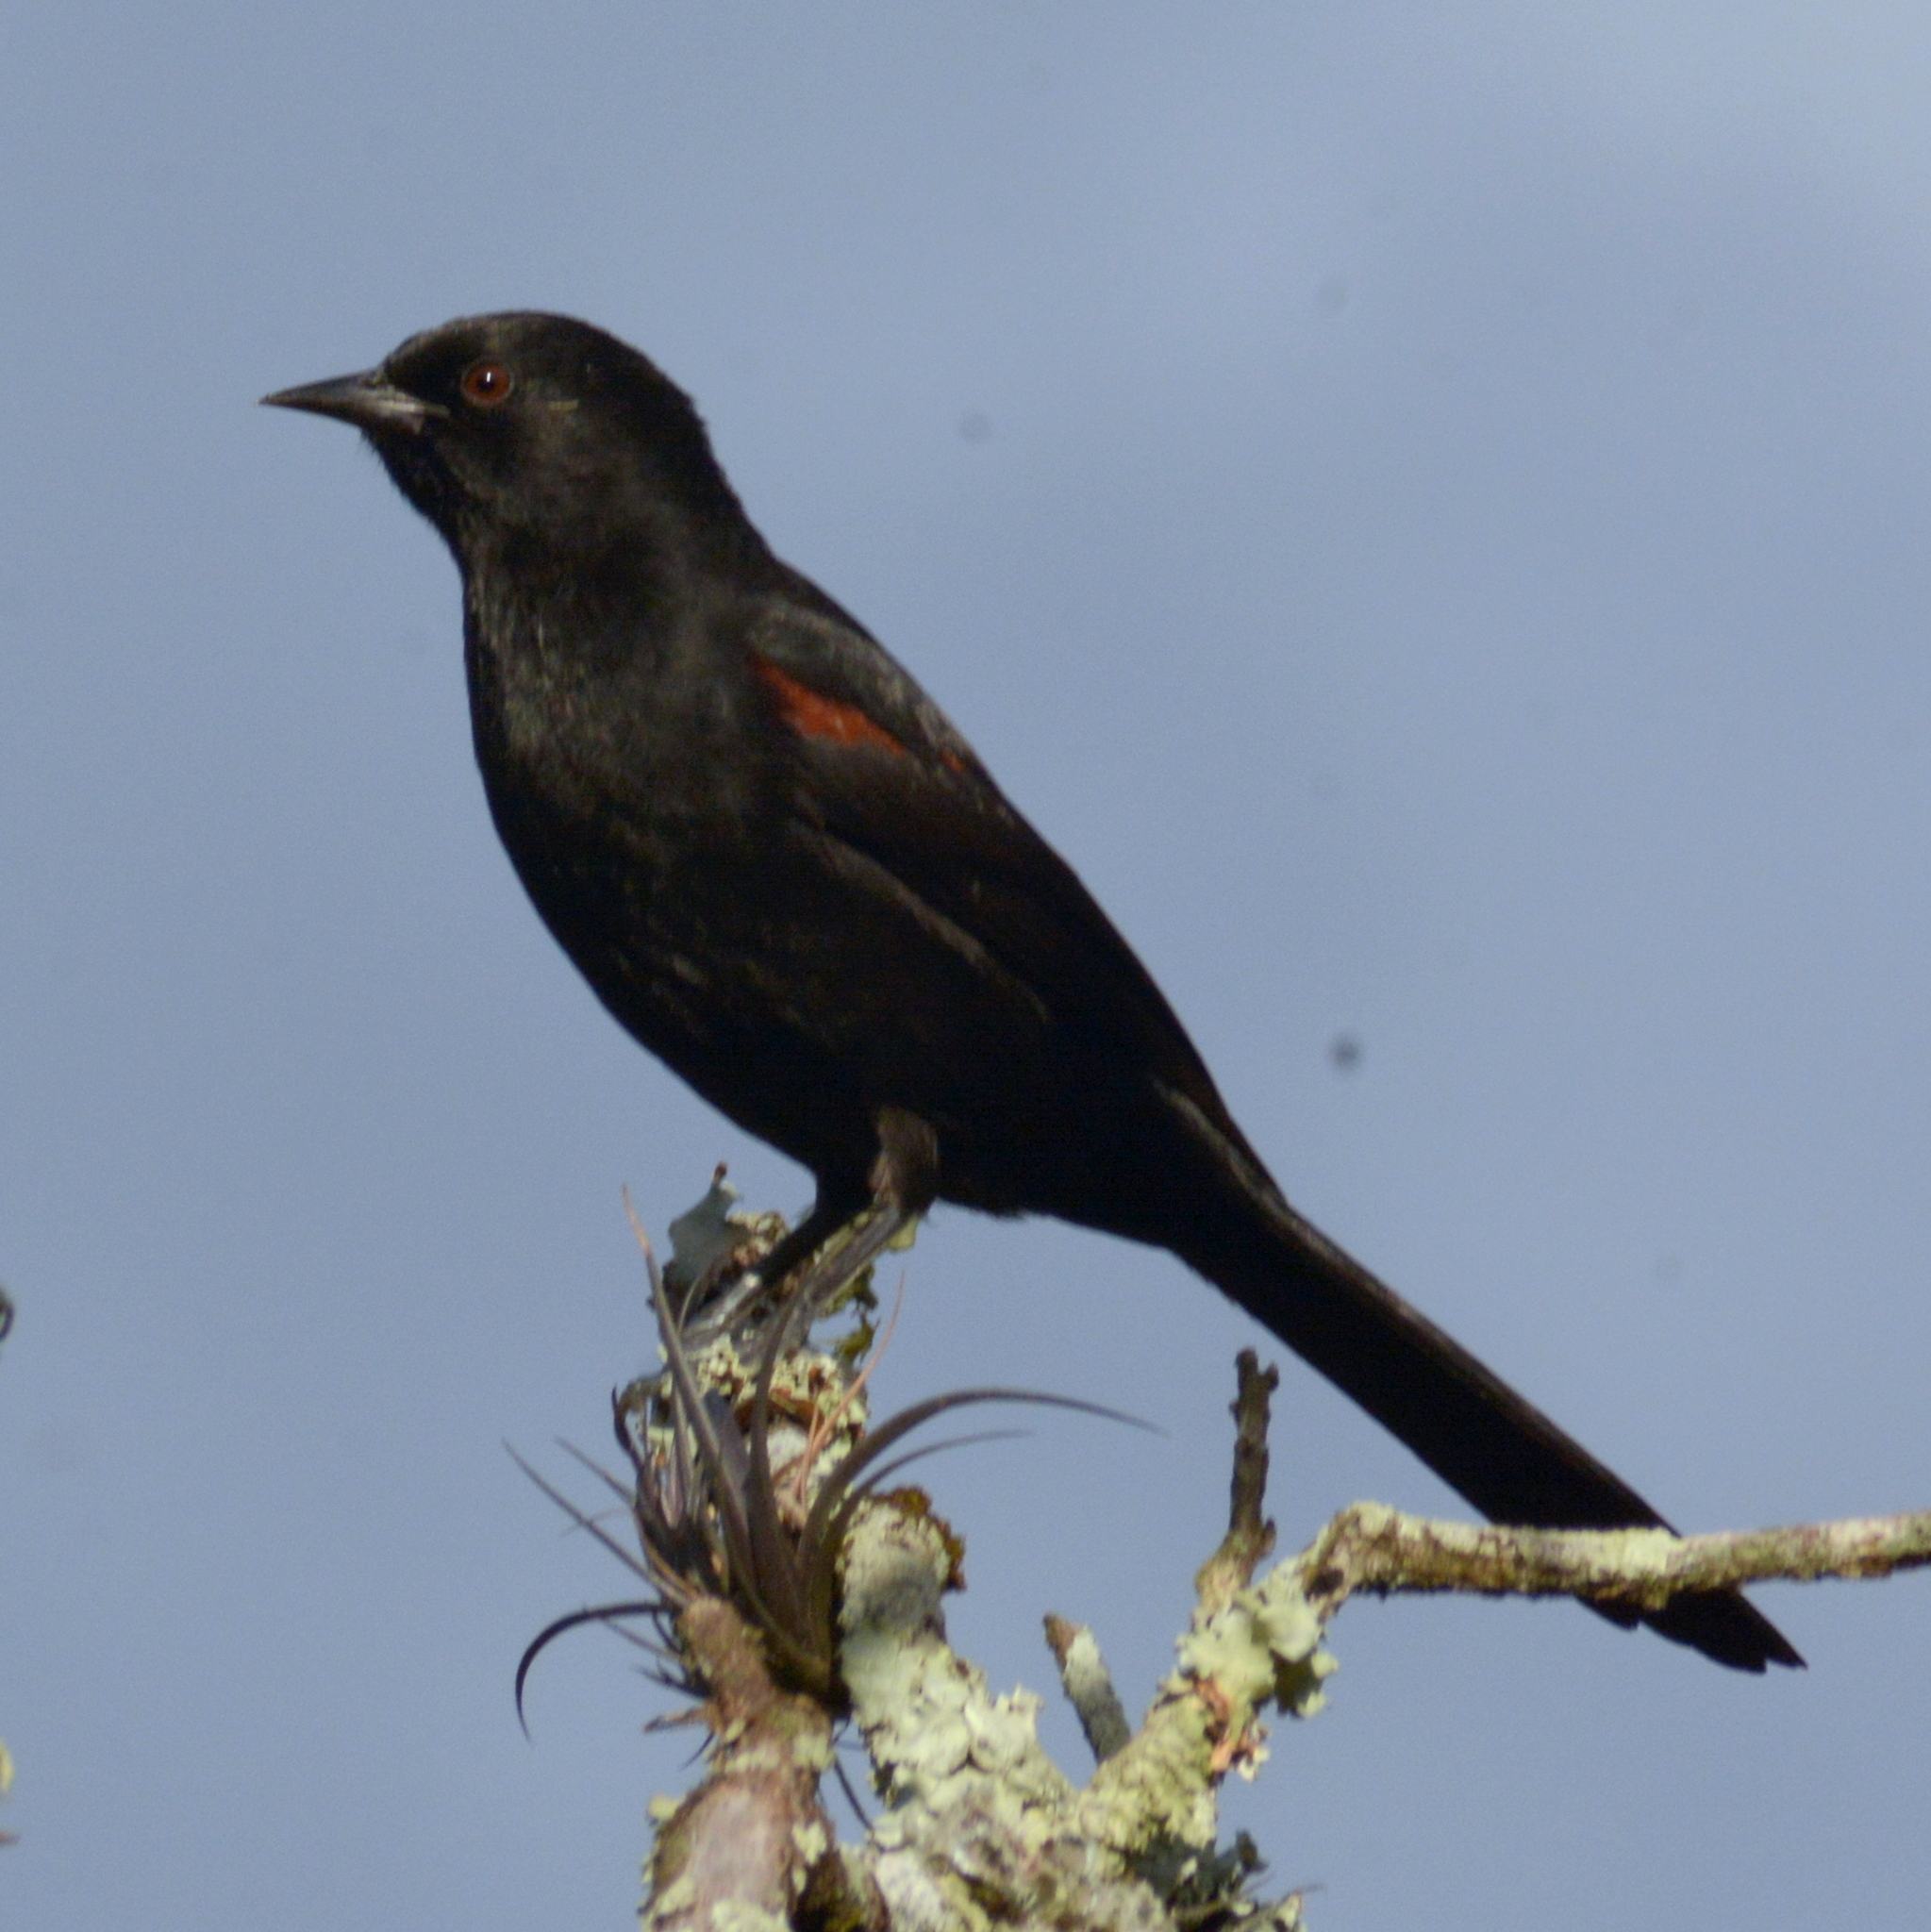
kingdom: Animalia
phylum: Chordata
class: Aves
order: Passeriformes
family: Icteridae
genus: Icterus
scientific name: Icterus cayanensis
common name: Epaulet oriole
